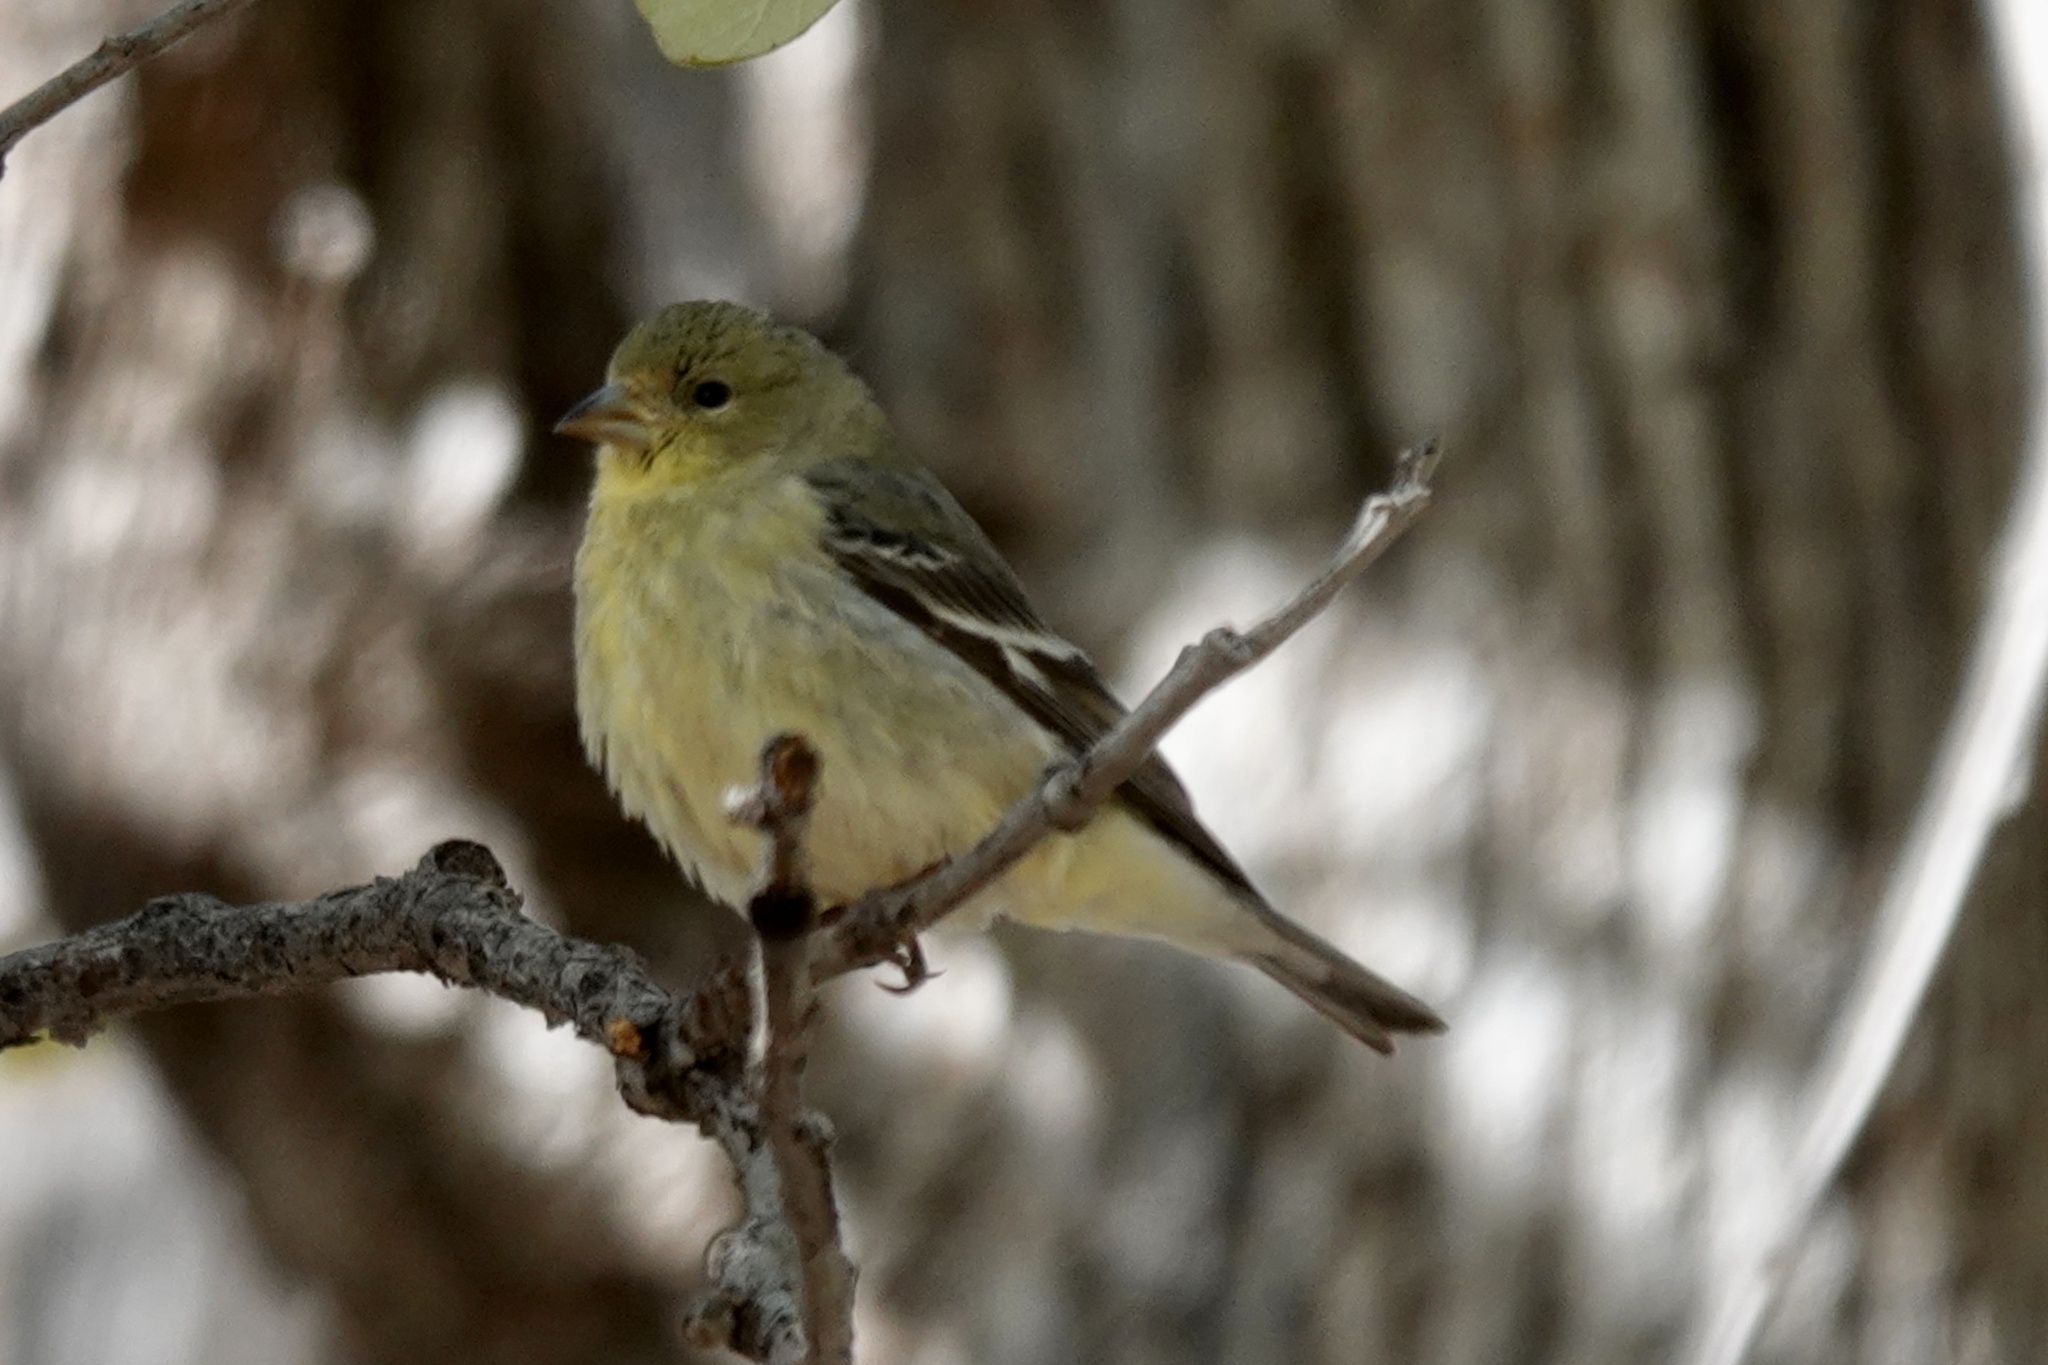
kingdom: Animalia
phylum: Chordata
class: Aves
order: Passeriformes
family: Fringillidae
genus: Spinus
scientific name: Spinus psaltria
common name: Lesser goldfinch
